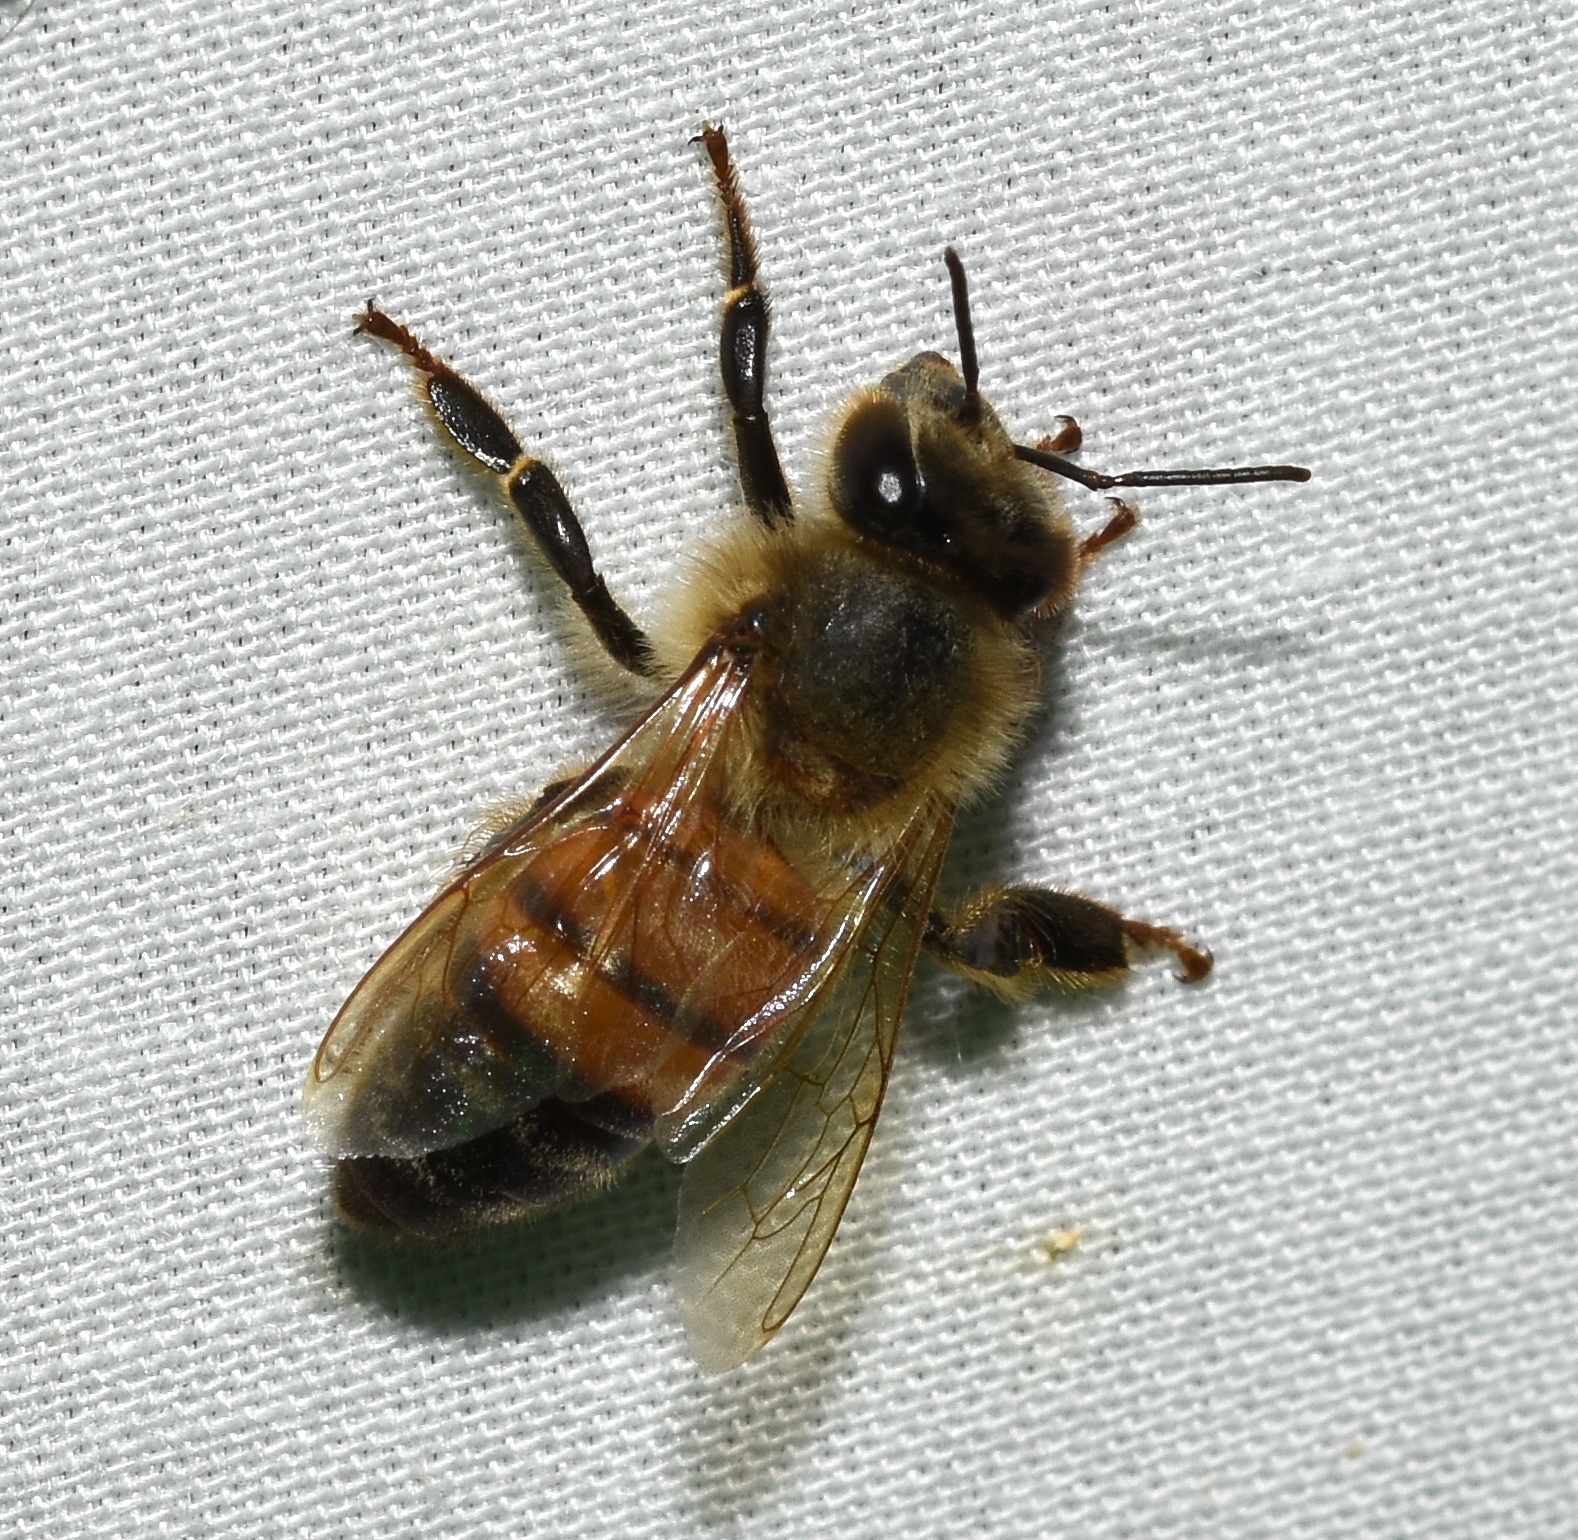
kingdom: Animalia
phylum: Arthropoda
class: Insecta
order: Hymenoptera
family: Apidae
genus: Apis
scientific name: Apis mellifera
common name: Honey bee
